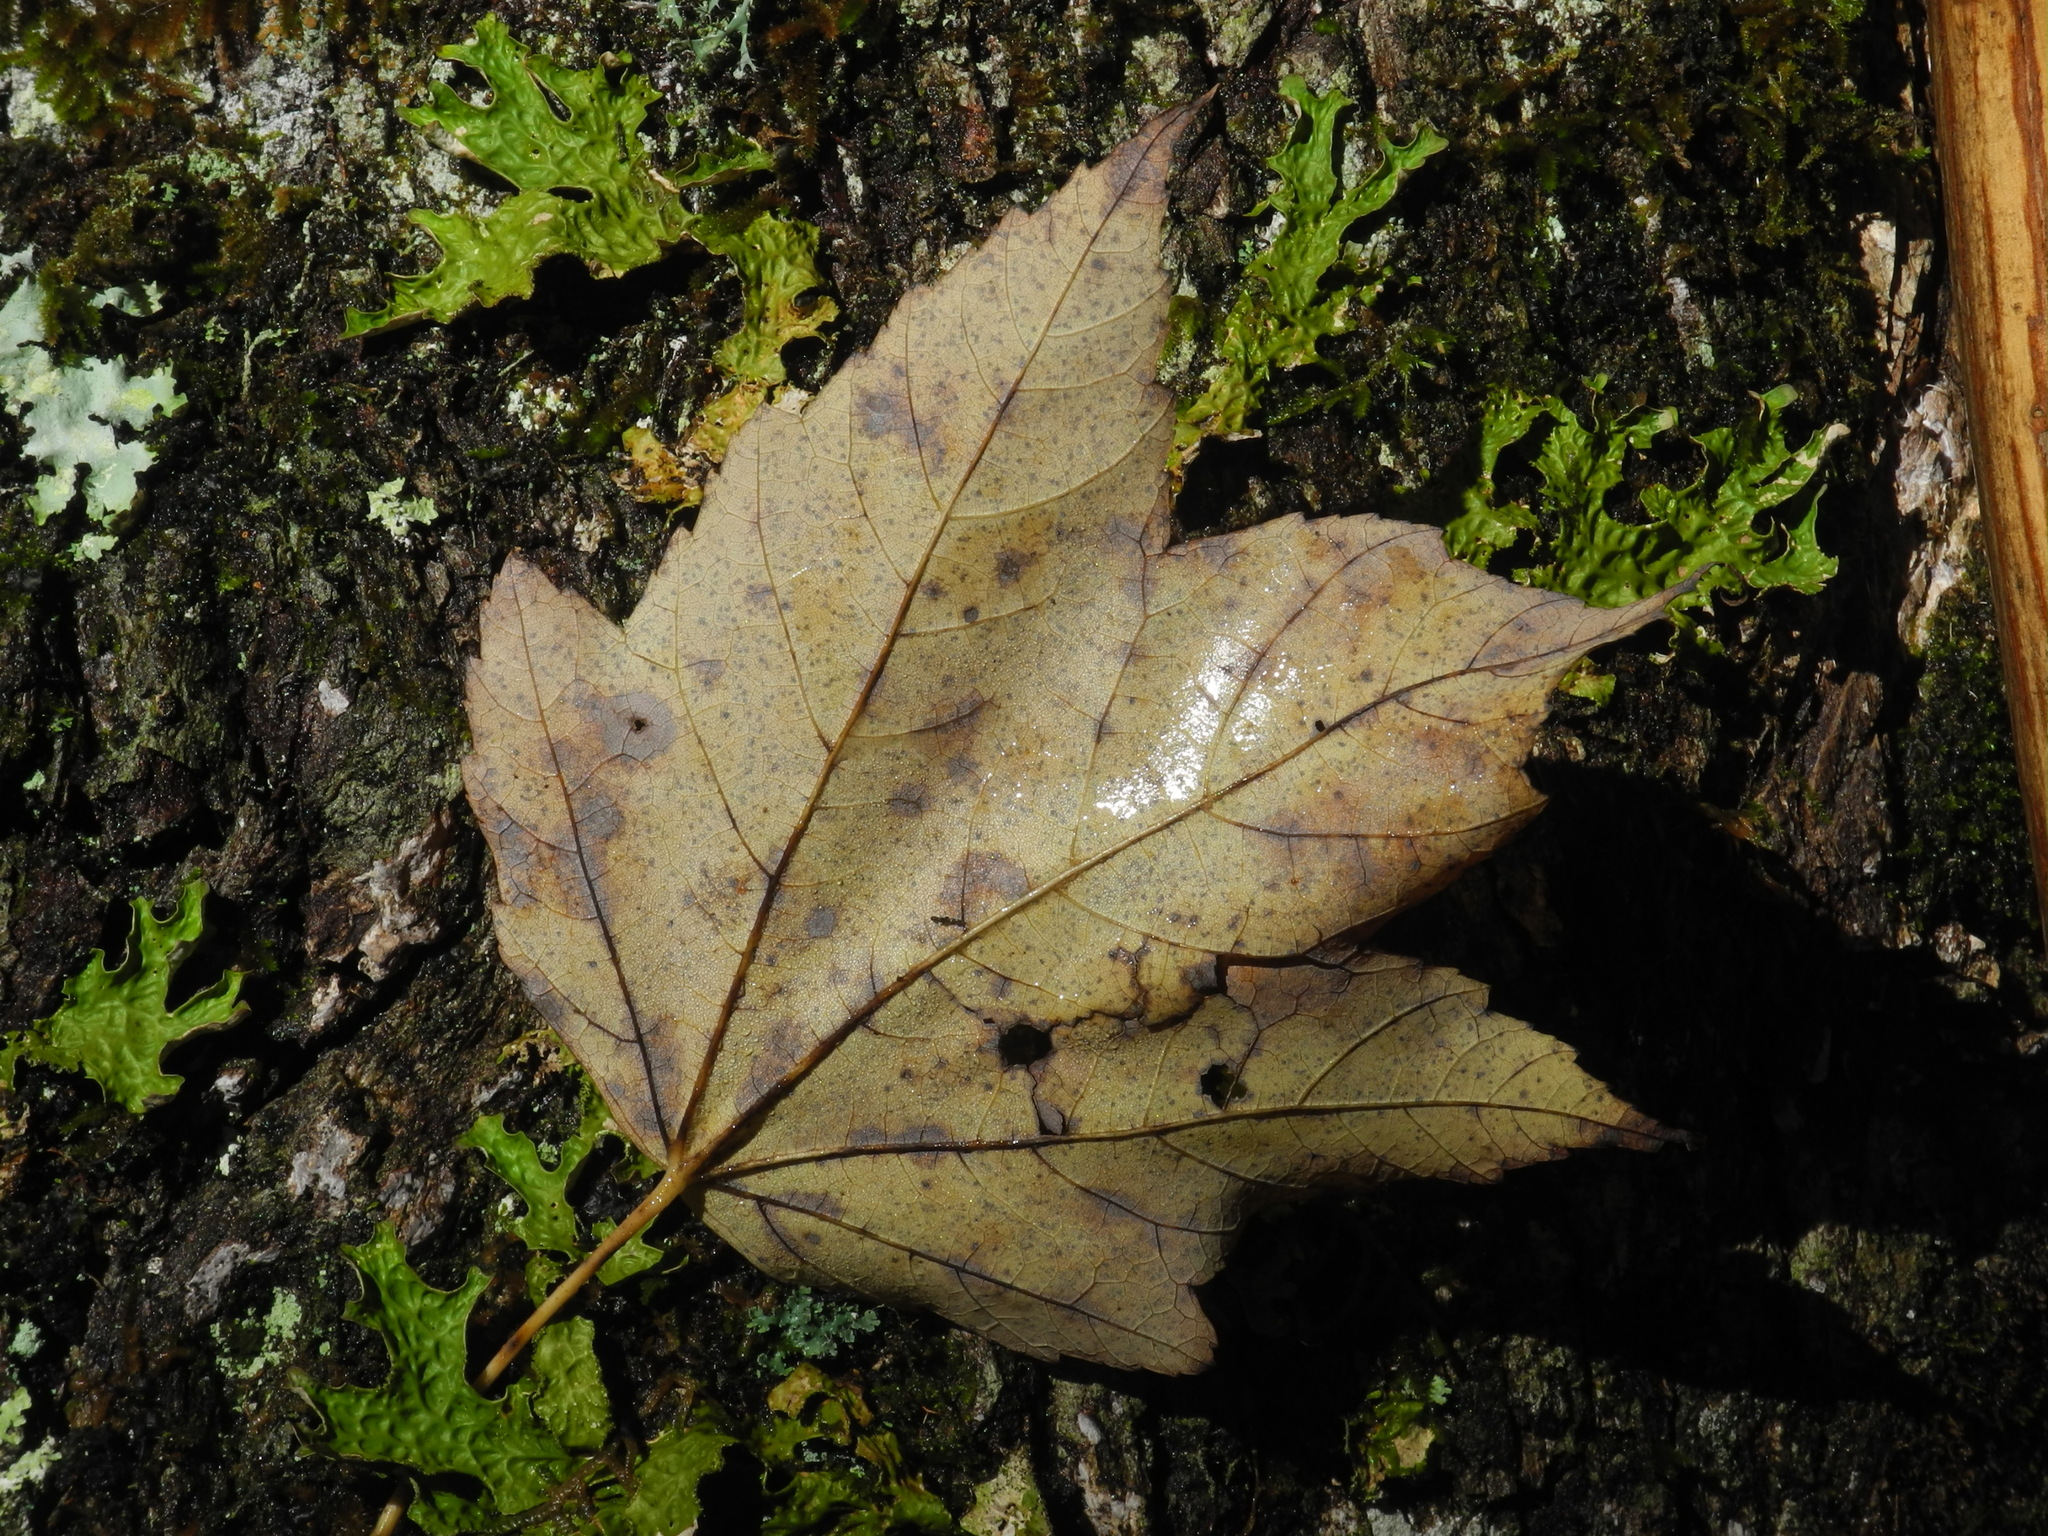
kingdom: Plantae
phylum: Tracheophyta
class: Magnoliopsida
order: Sapindales
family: Sapindaceae
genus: Acer
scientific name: Acer rubrum
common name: Red maple
